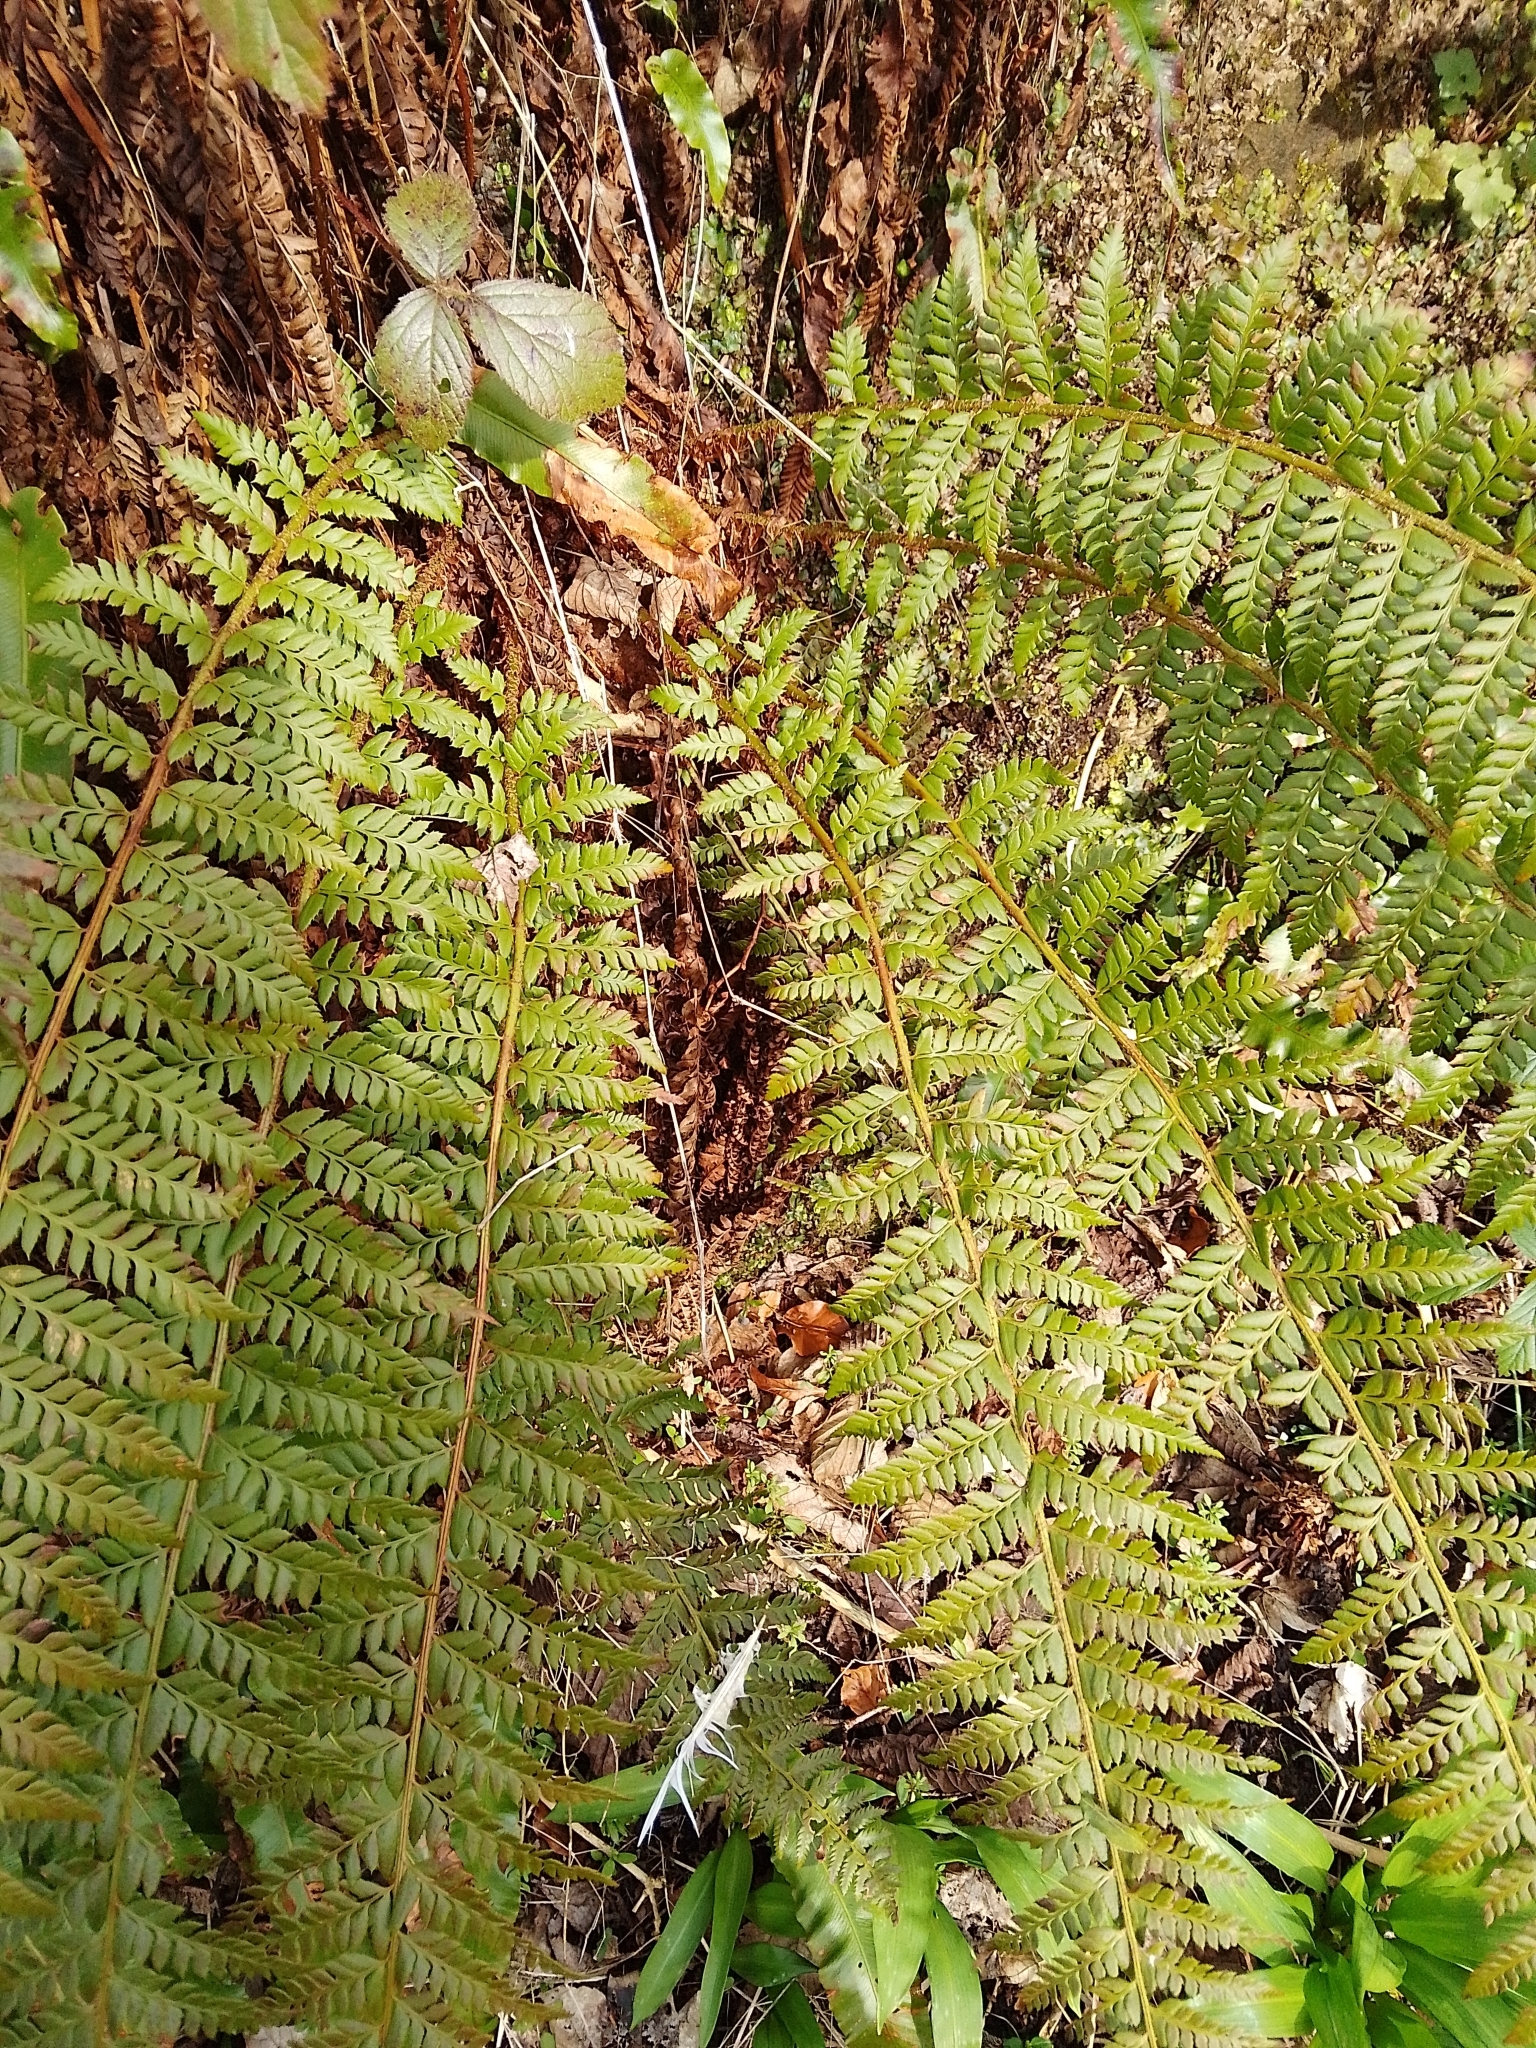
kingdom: Plantae
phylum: Tracheophyta
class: Polypodiopsida
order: Polypodiales
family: Dryopteridaceae
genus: Polystichum
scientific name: Polystichum aculeatum
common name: Hard shield-fern
